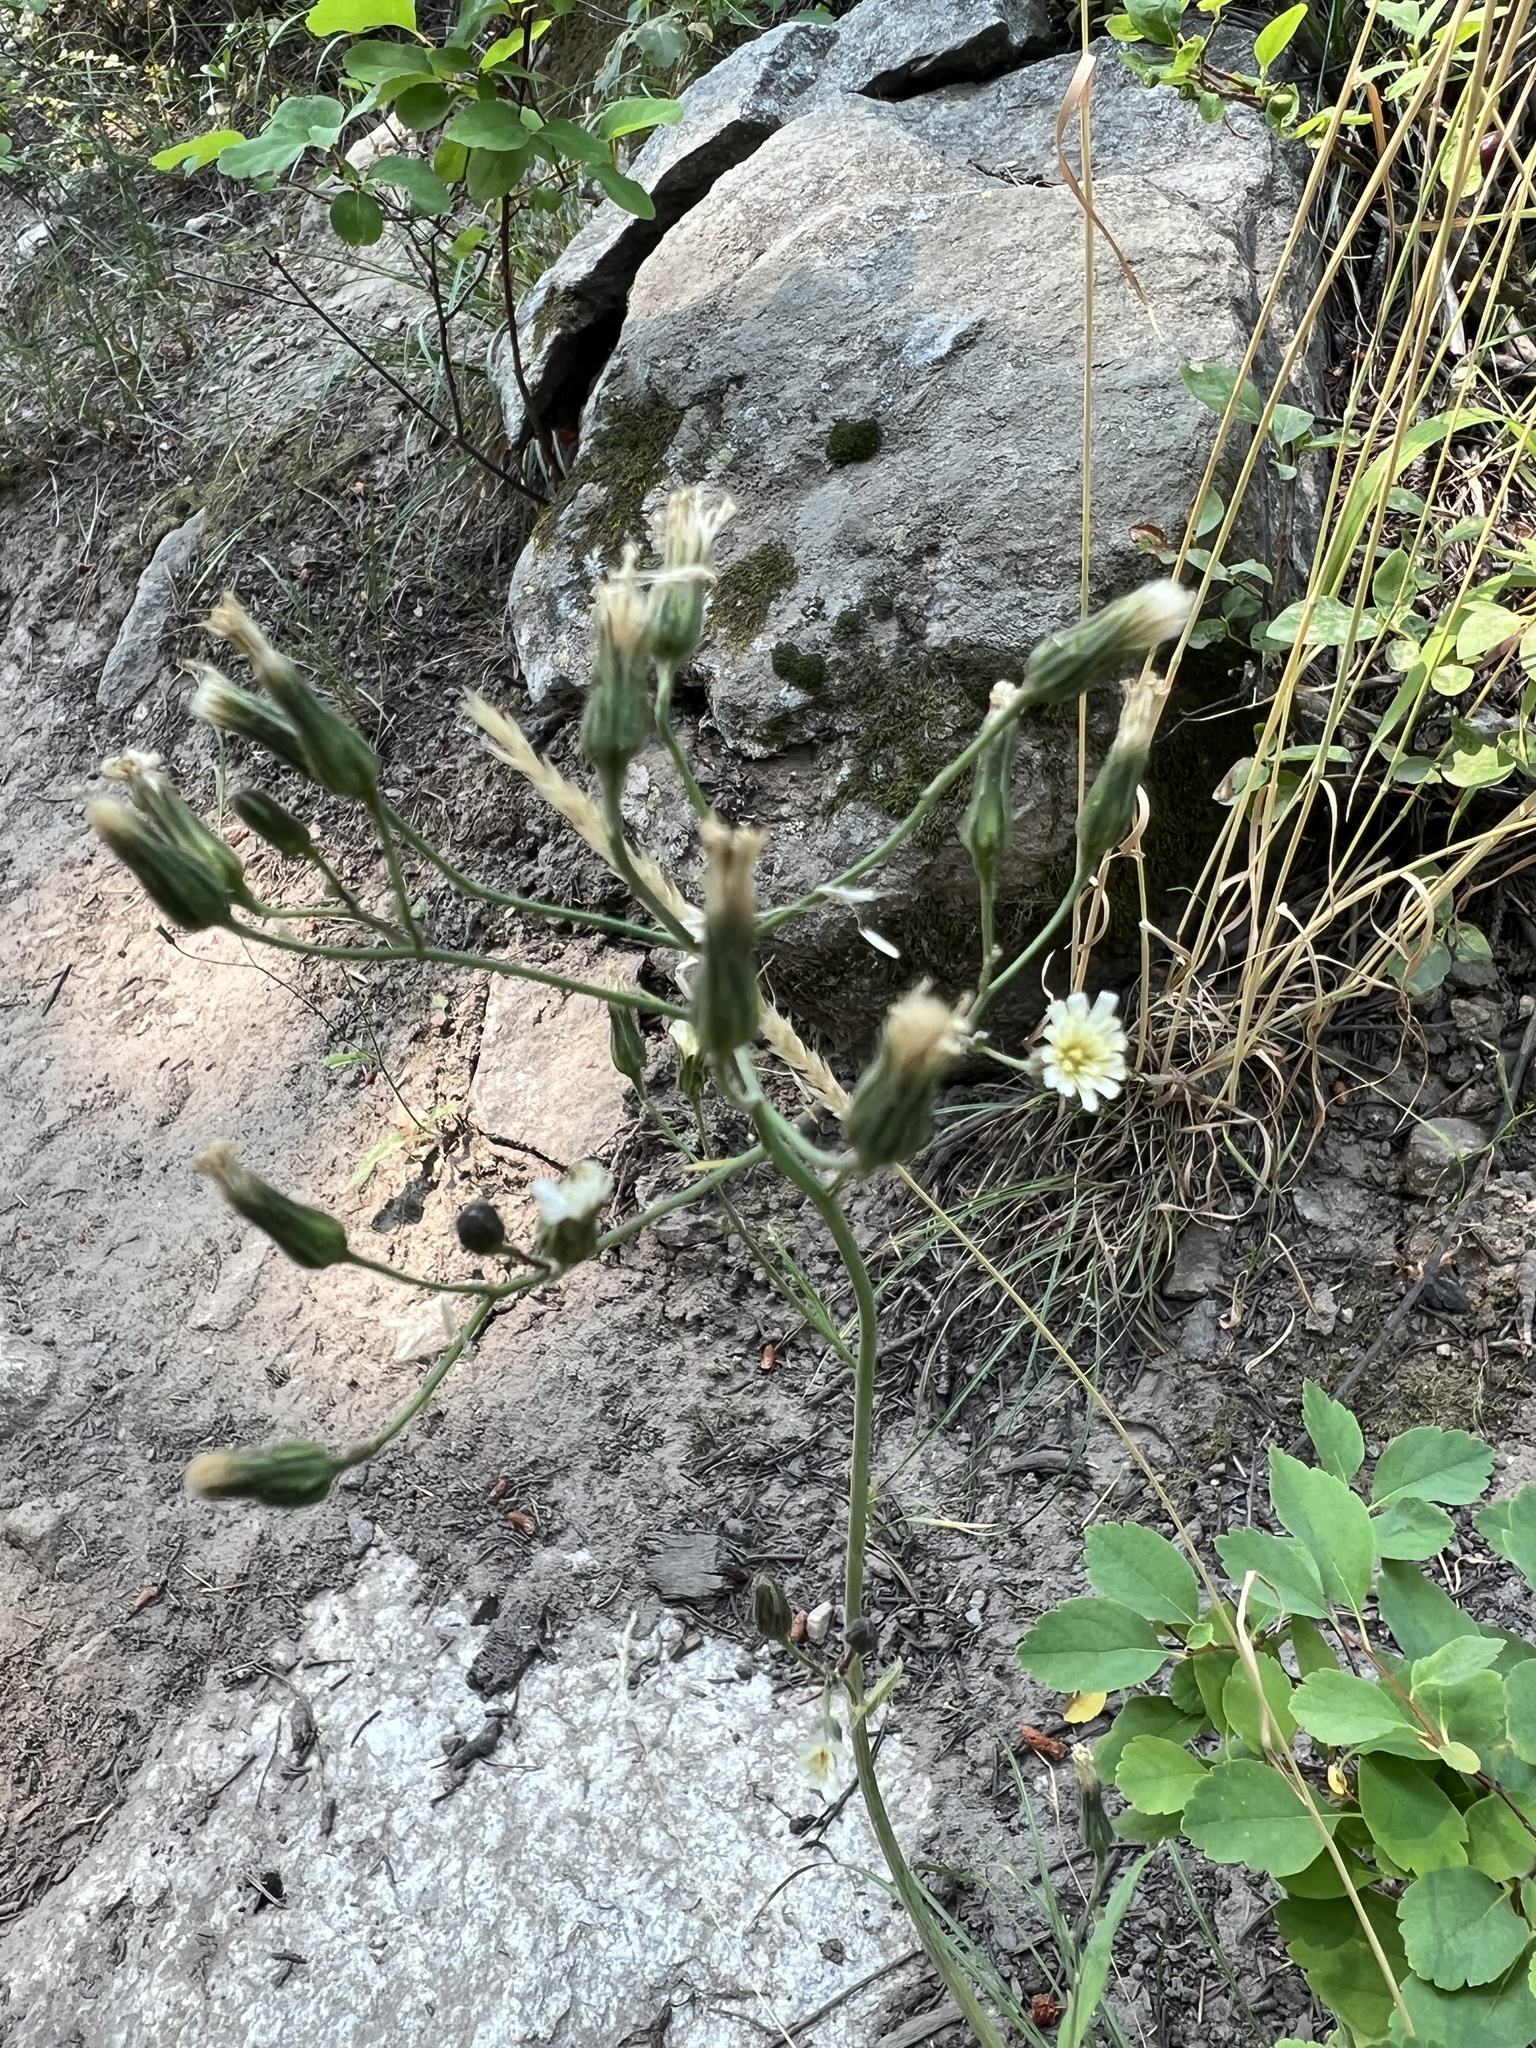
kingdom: Plantae
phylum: Tracheophyta
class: Magnoliopsida
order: Asterales
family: Asteraceae
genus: Hieracium
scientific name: Hieracium albiflorum
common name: White hawkweed
